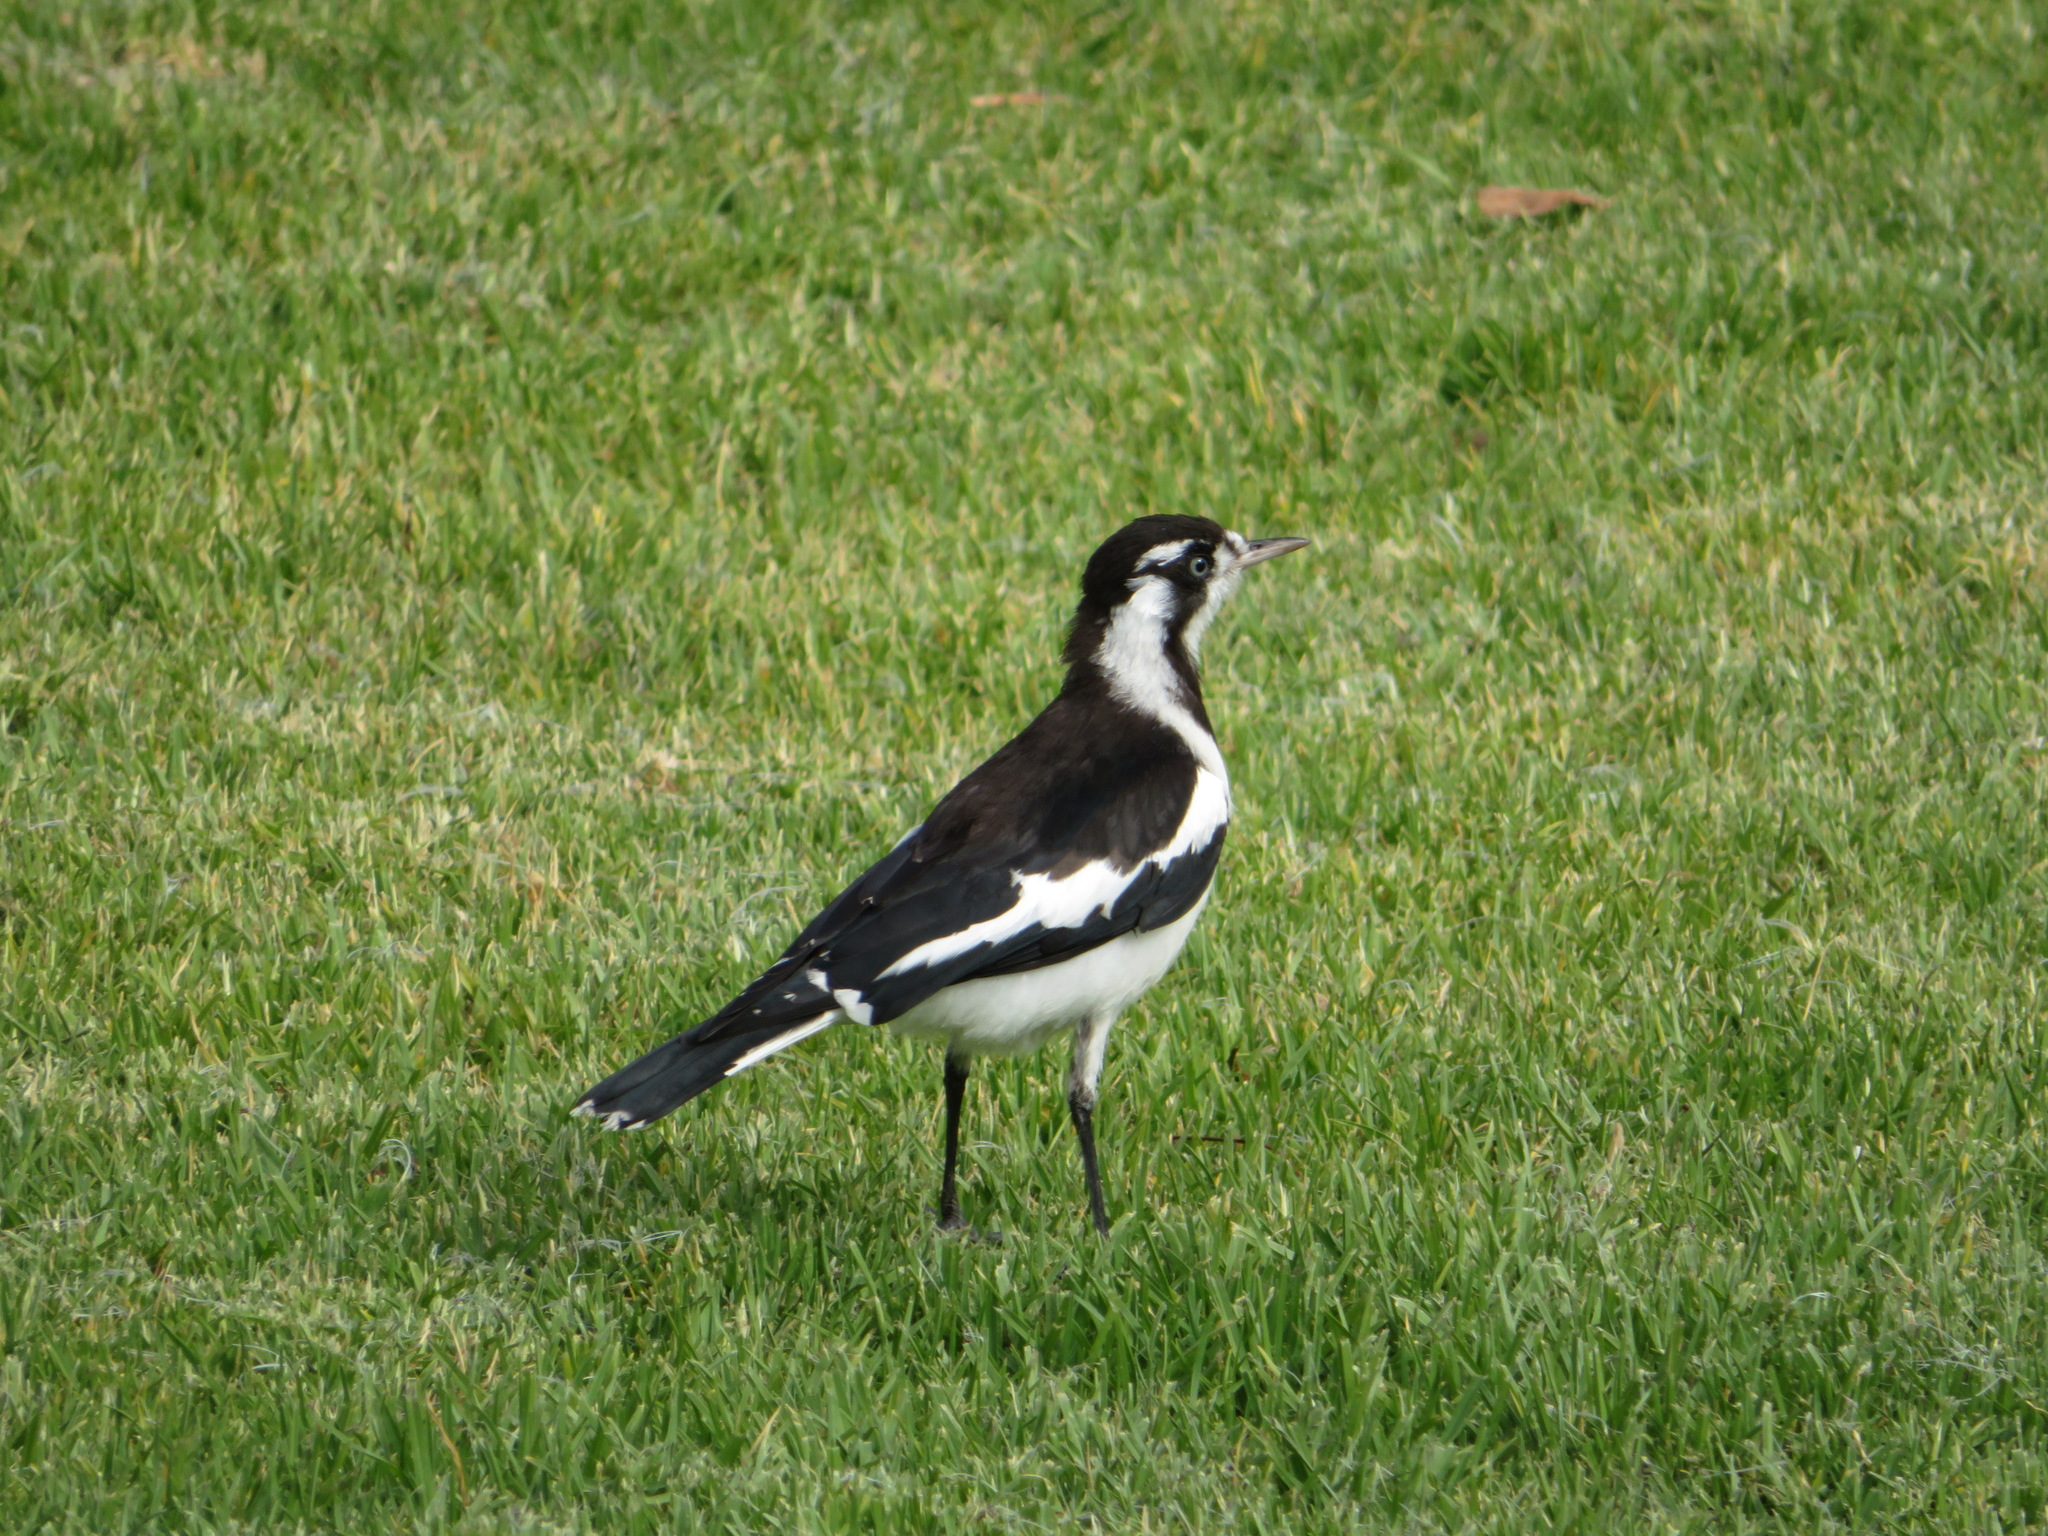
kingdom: Animalia
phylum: Chordata
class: Aves
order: Passeriformes
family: Monarchidae
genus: Grallina
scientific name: Grallina cyanoleuca
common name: Magpie-lark
